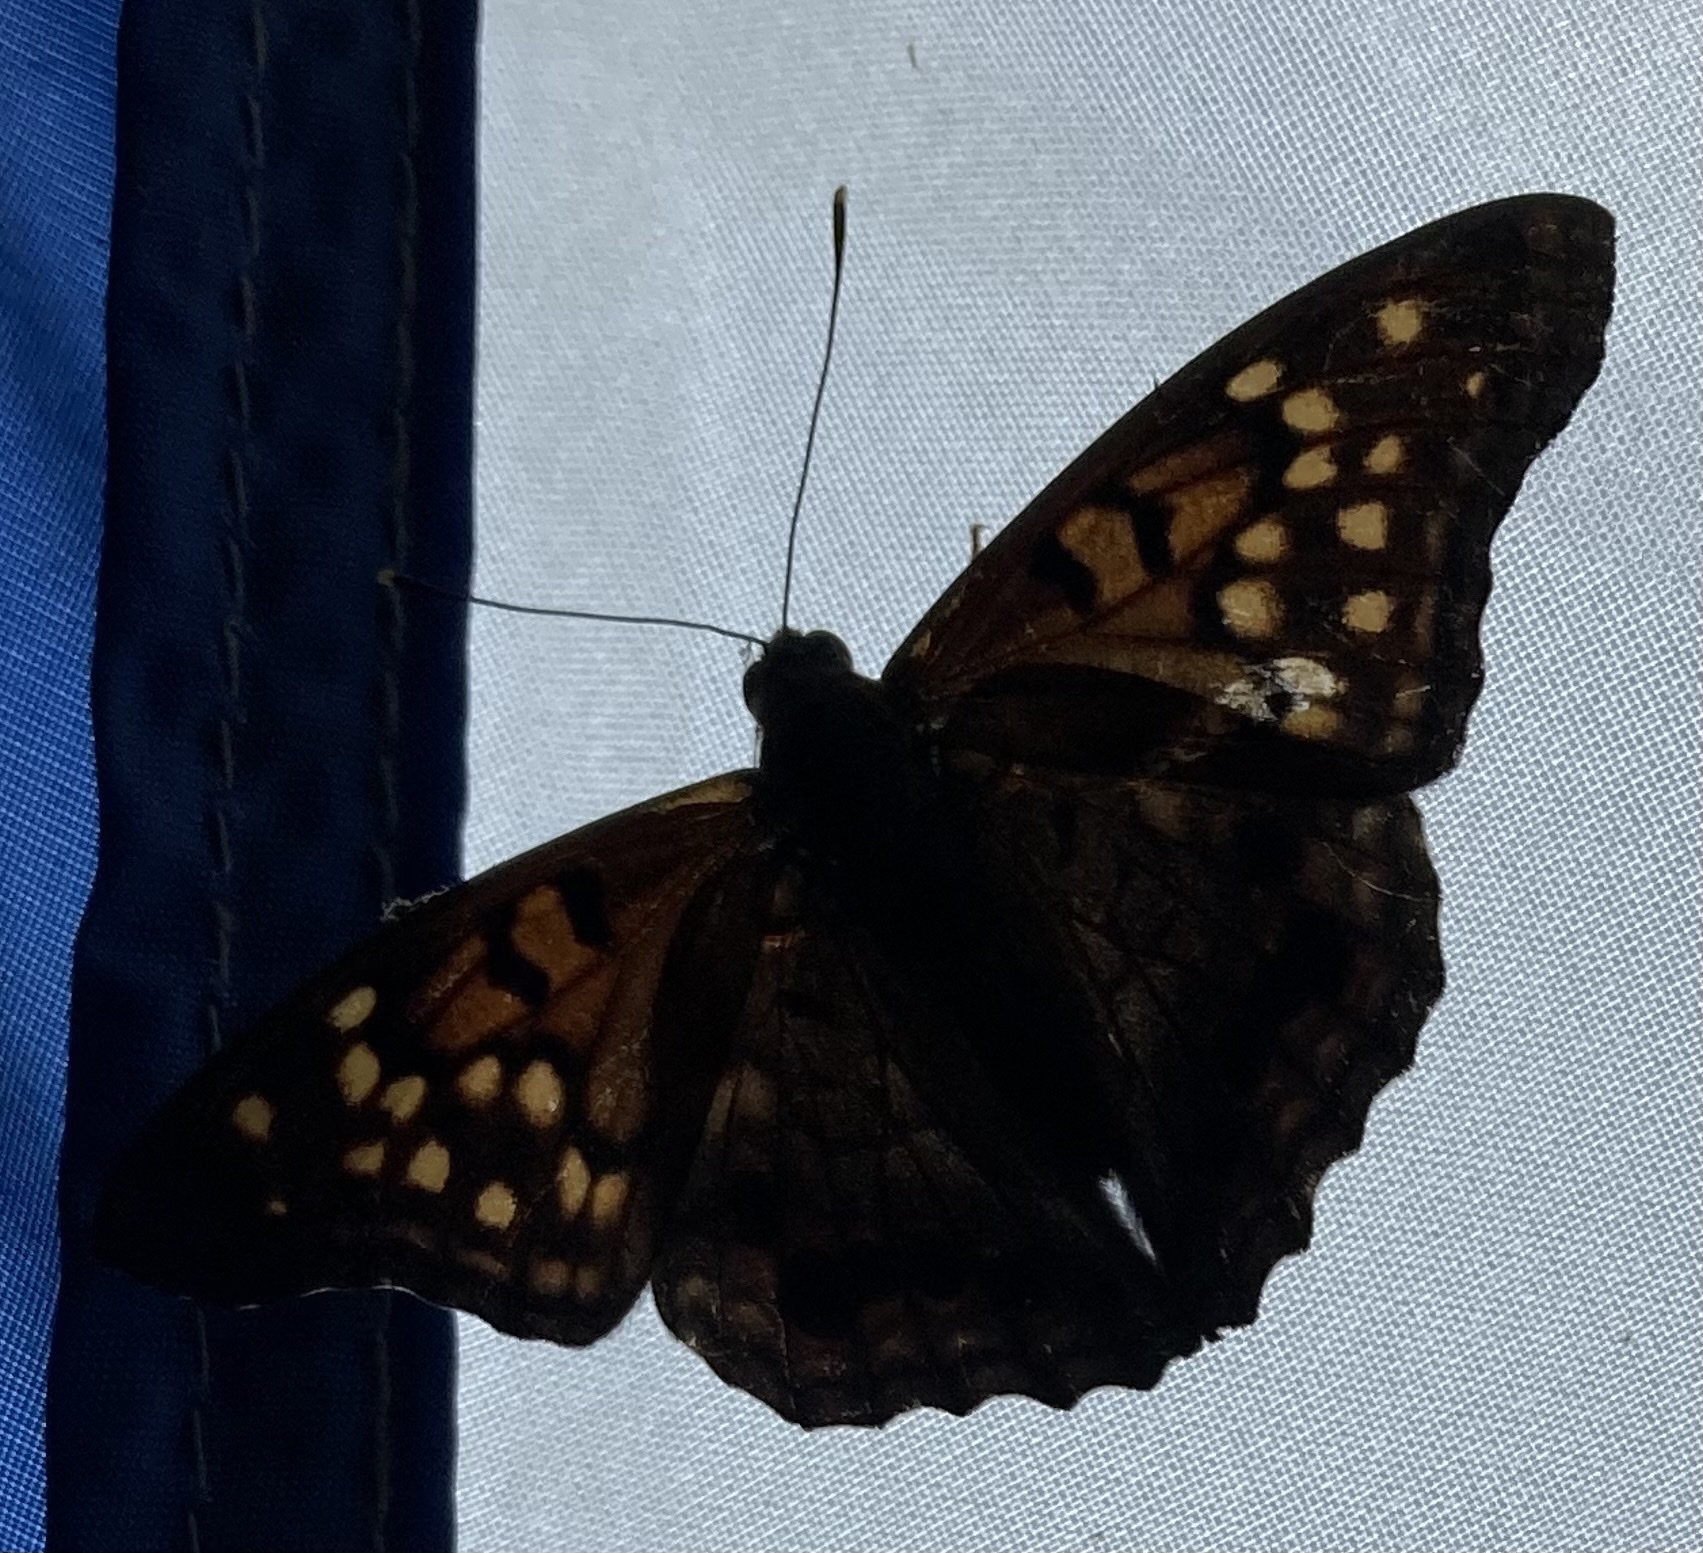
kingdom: Animalia
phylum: Arthropoda
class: Insecta
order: Lepidoptera
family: Nymphalidae
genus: Asterocampa
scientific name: Asterocampa clyton
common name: Tawny emperor
